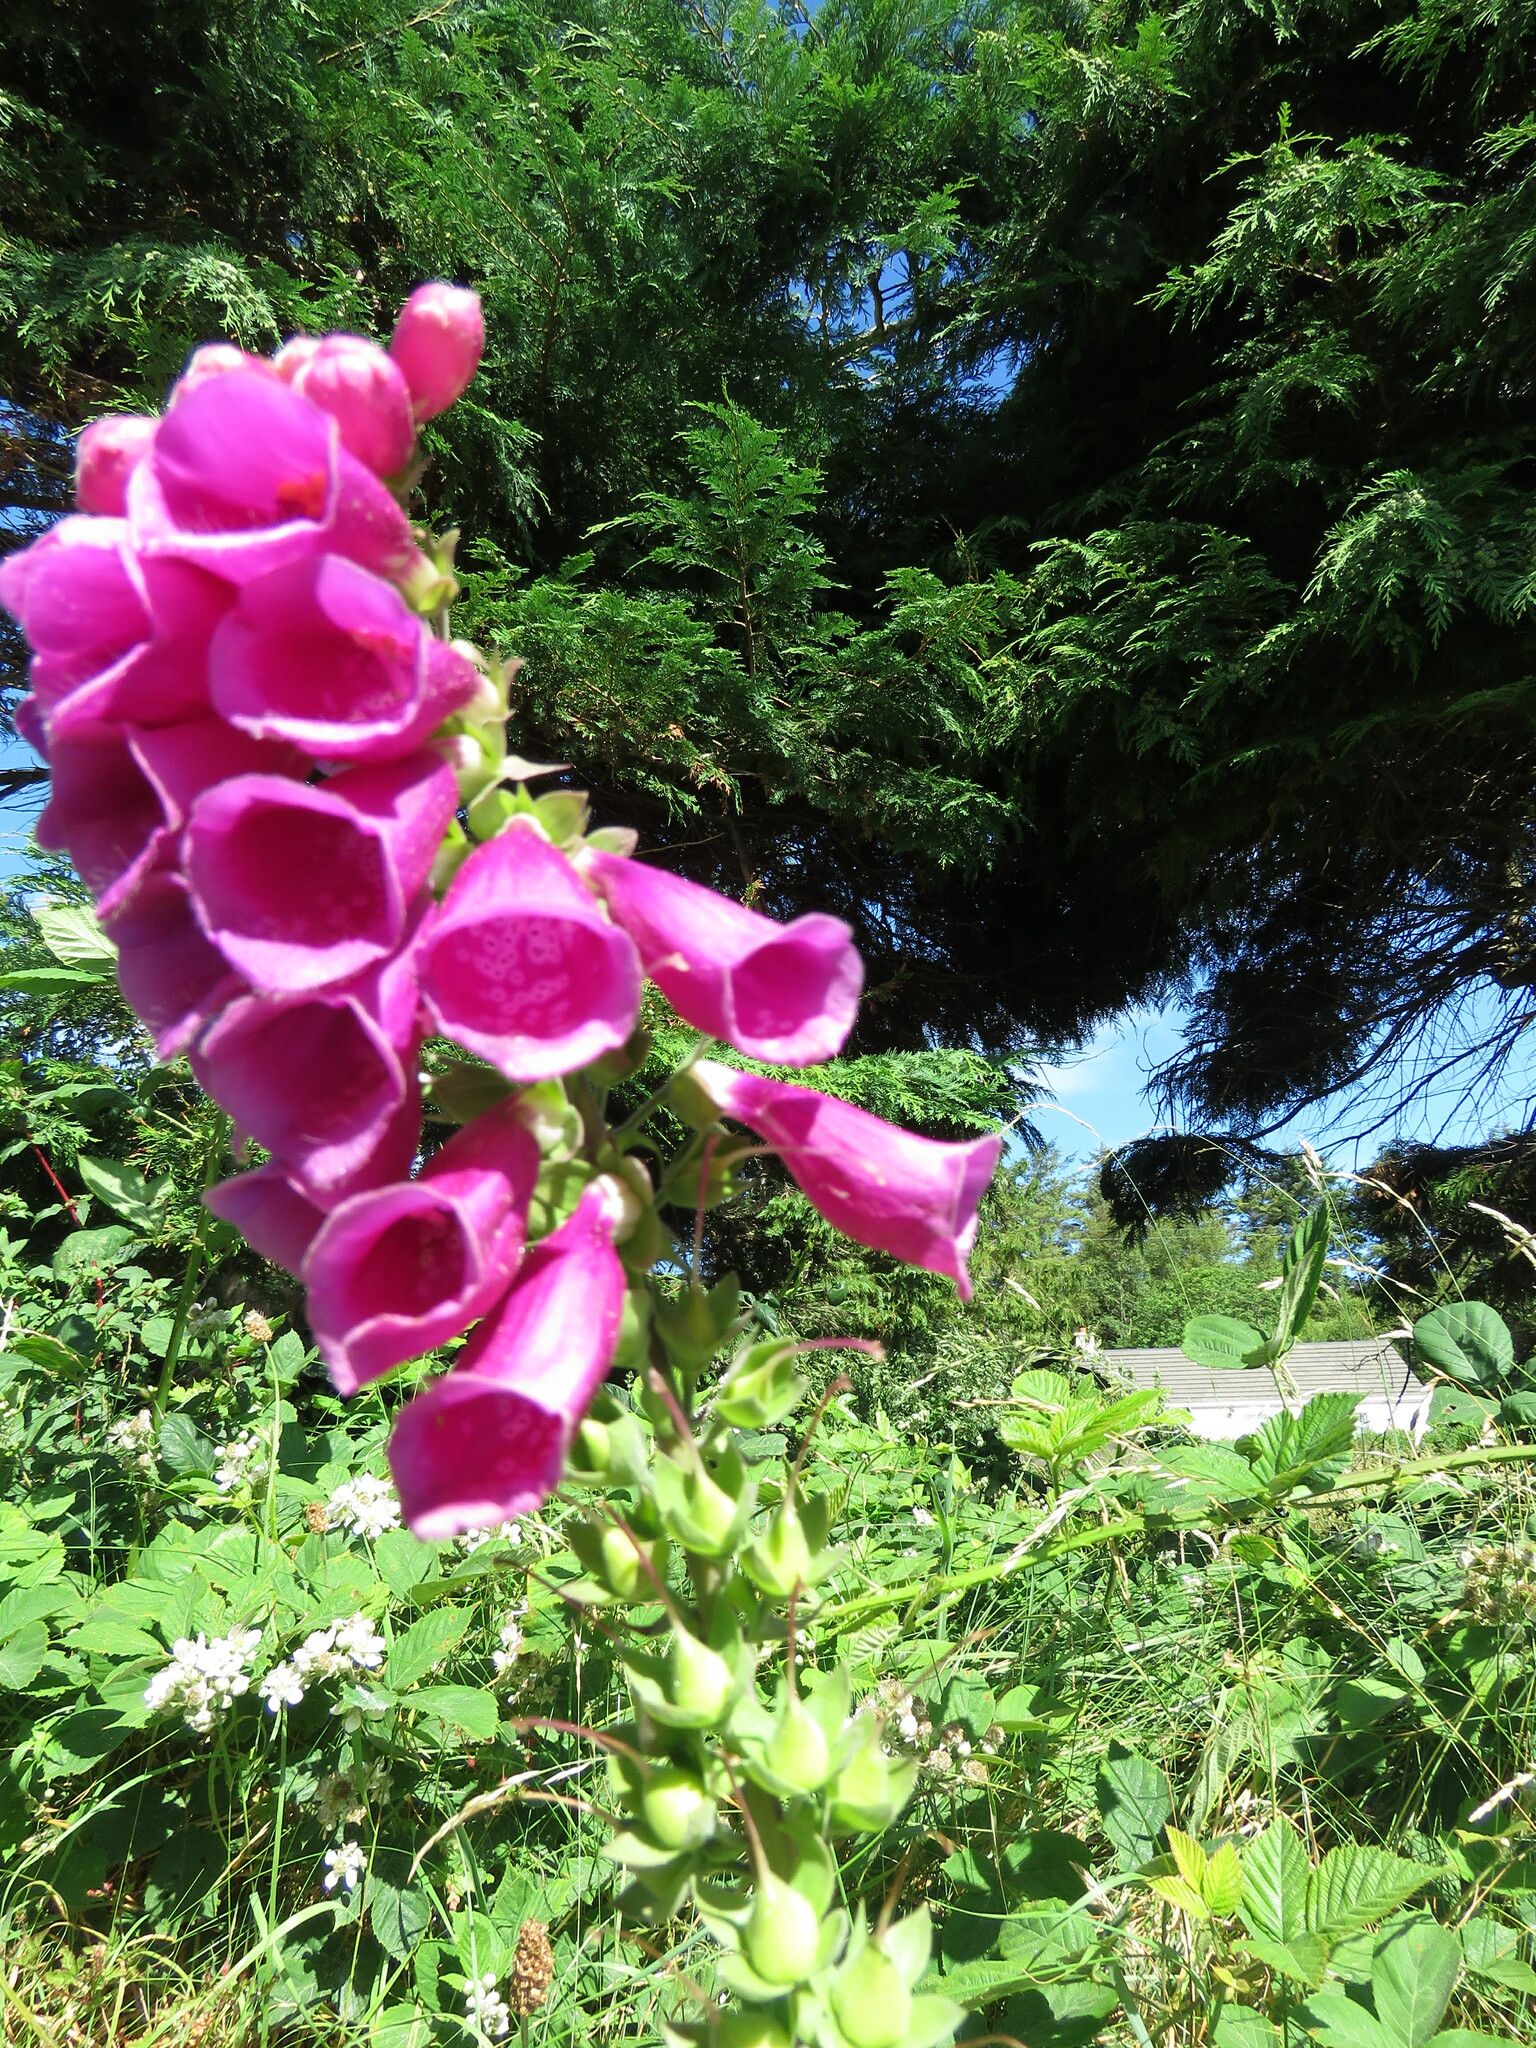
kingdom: Plantae
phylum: Tracheophyta
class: Magnoliopsida
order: Lamiales
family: Plantaginaceae
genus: Digitalis
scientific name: Digitalis purpurea
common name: Foxglove
